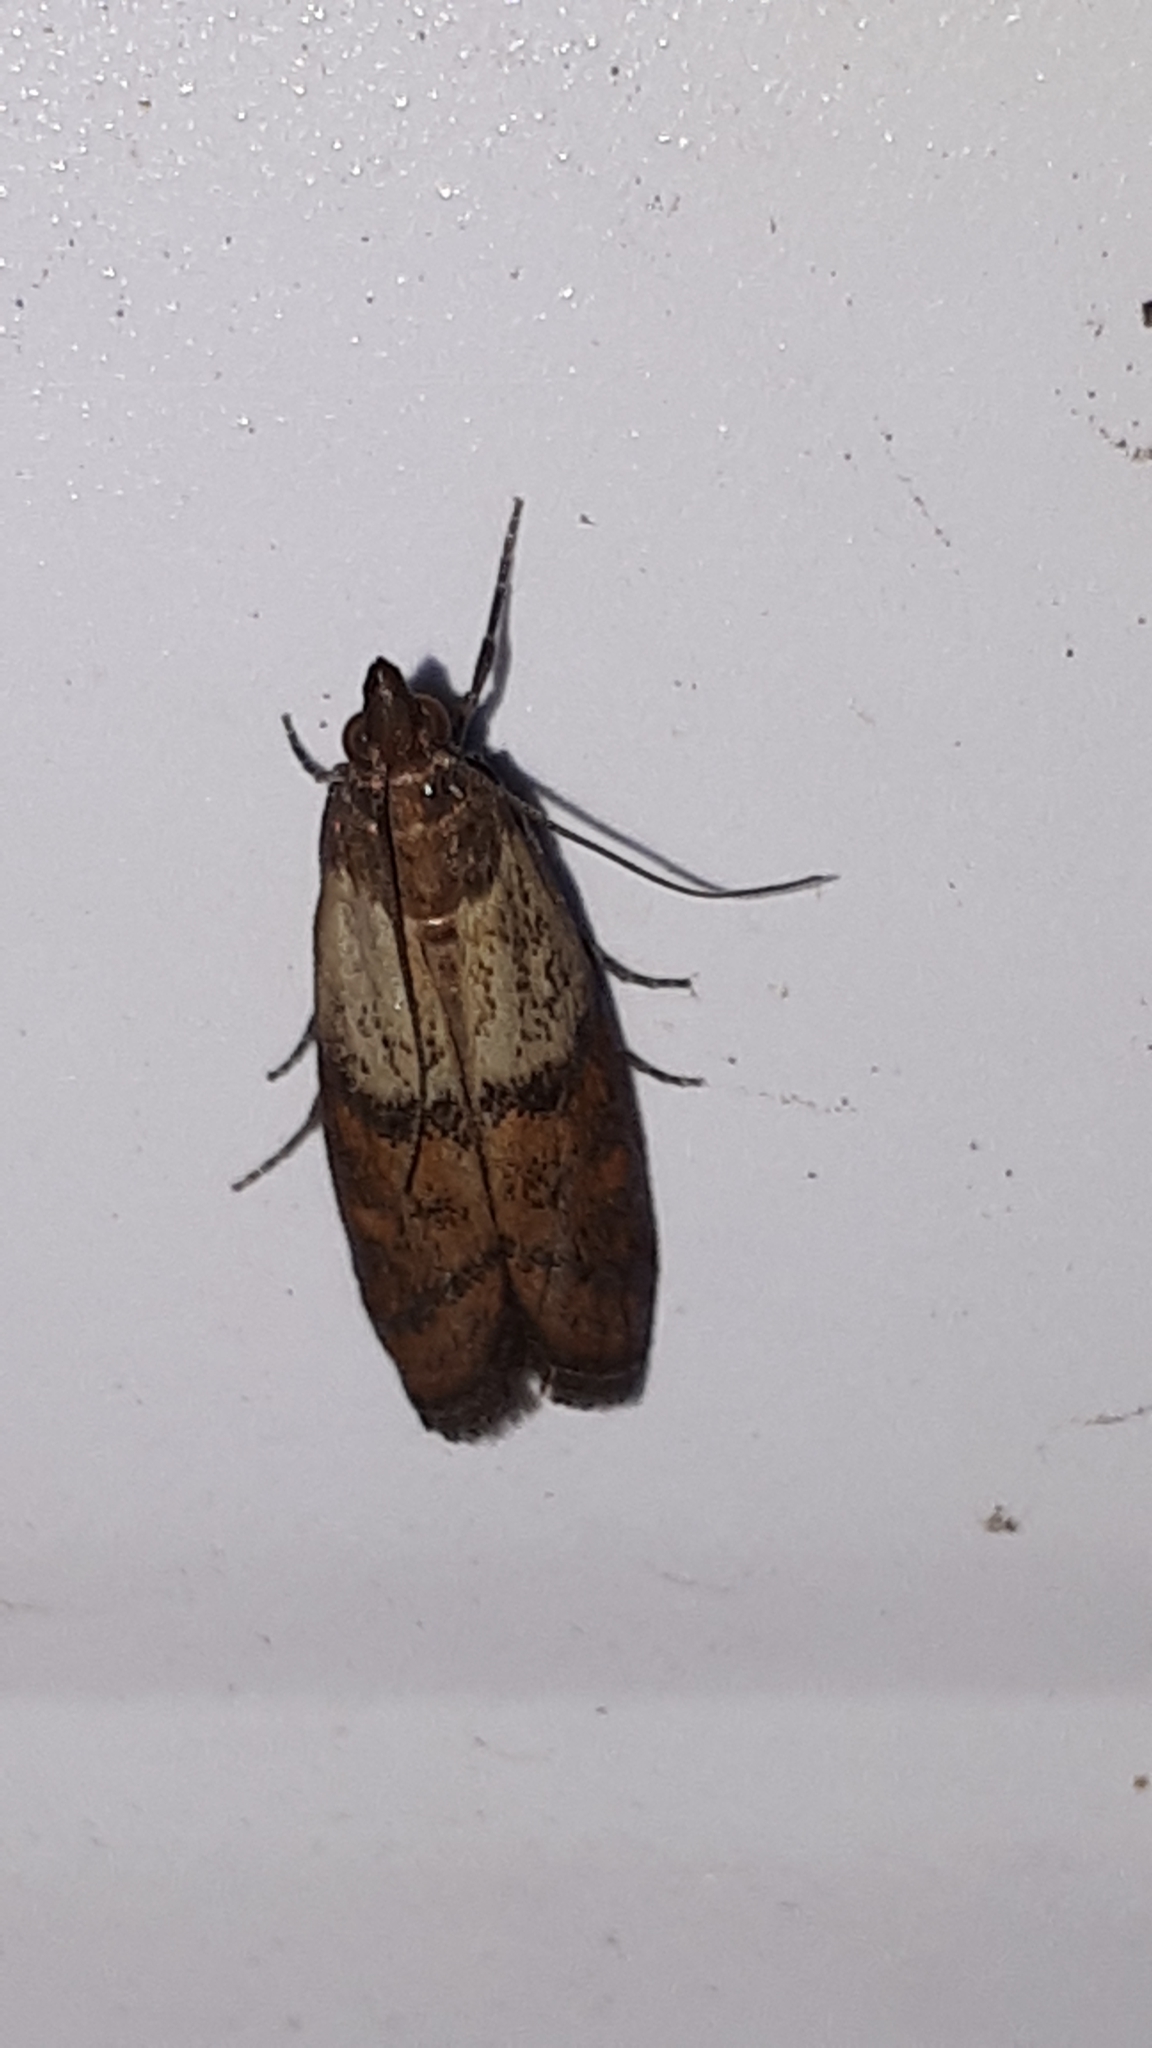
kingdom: Animalia
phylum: Arthropoda
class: Insecta
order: Lepidoptera
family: Pyralidae
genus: Plodia
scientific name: Plodia interpunctella
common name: Indian meal moth
